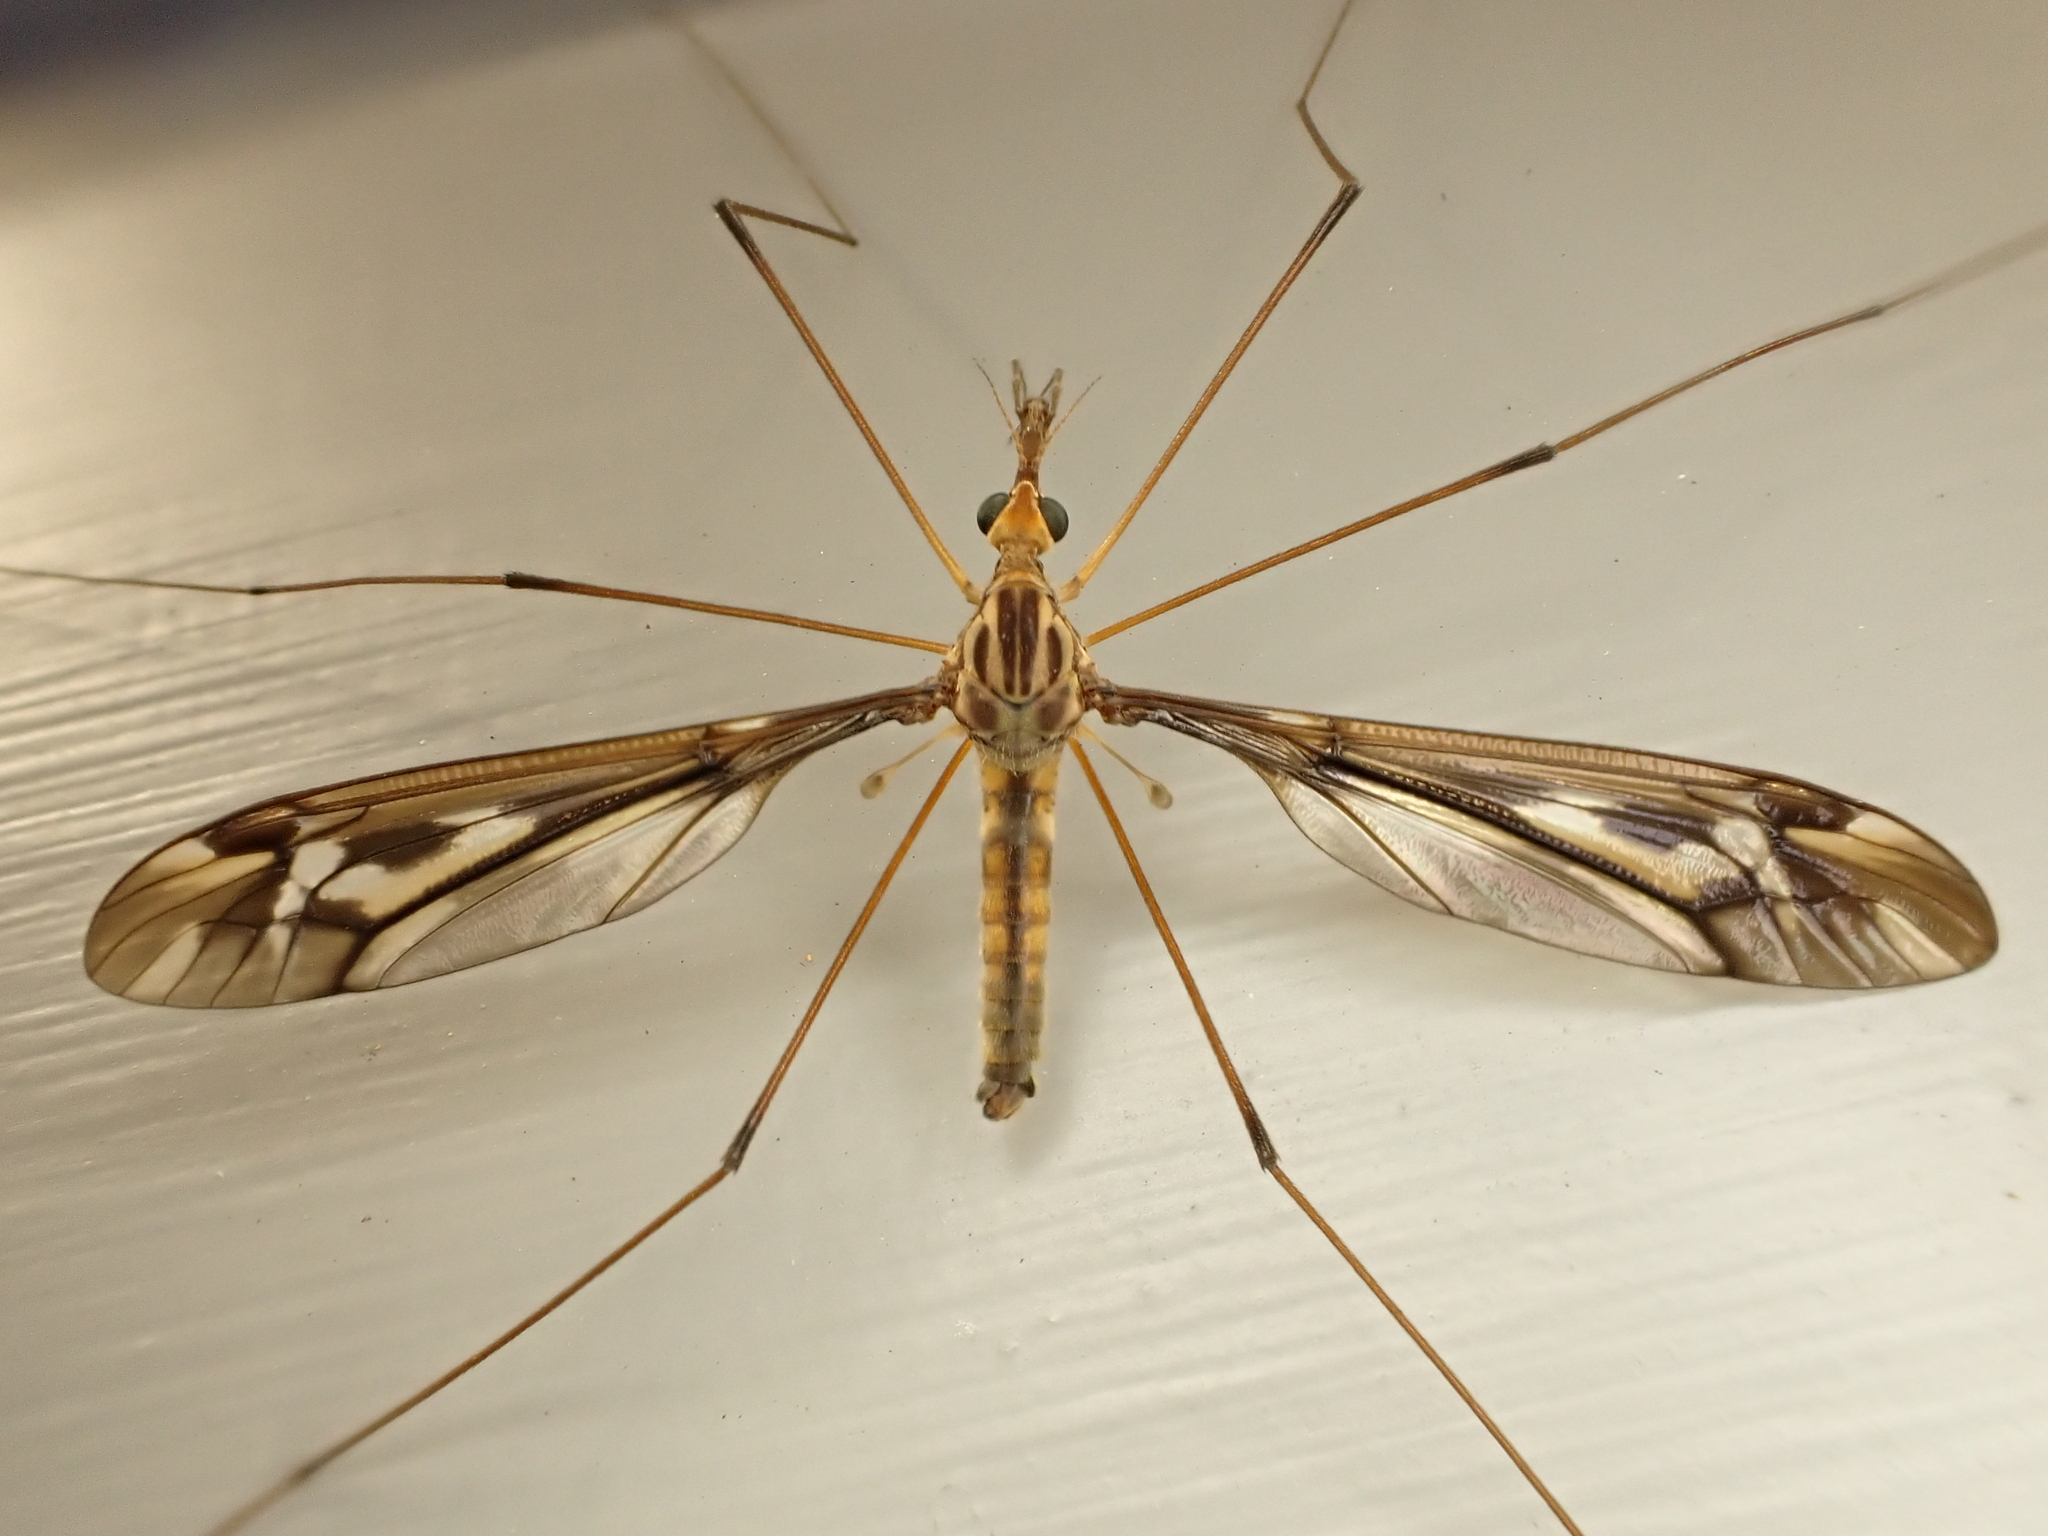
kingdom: Animalia
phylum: Arthropoda
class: Insecta
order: Diptera
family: Tipulidae
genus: Leptotarsus
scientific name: Leptotarsus huttoni
